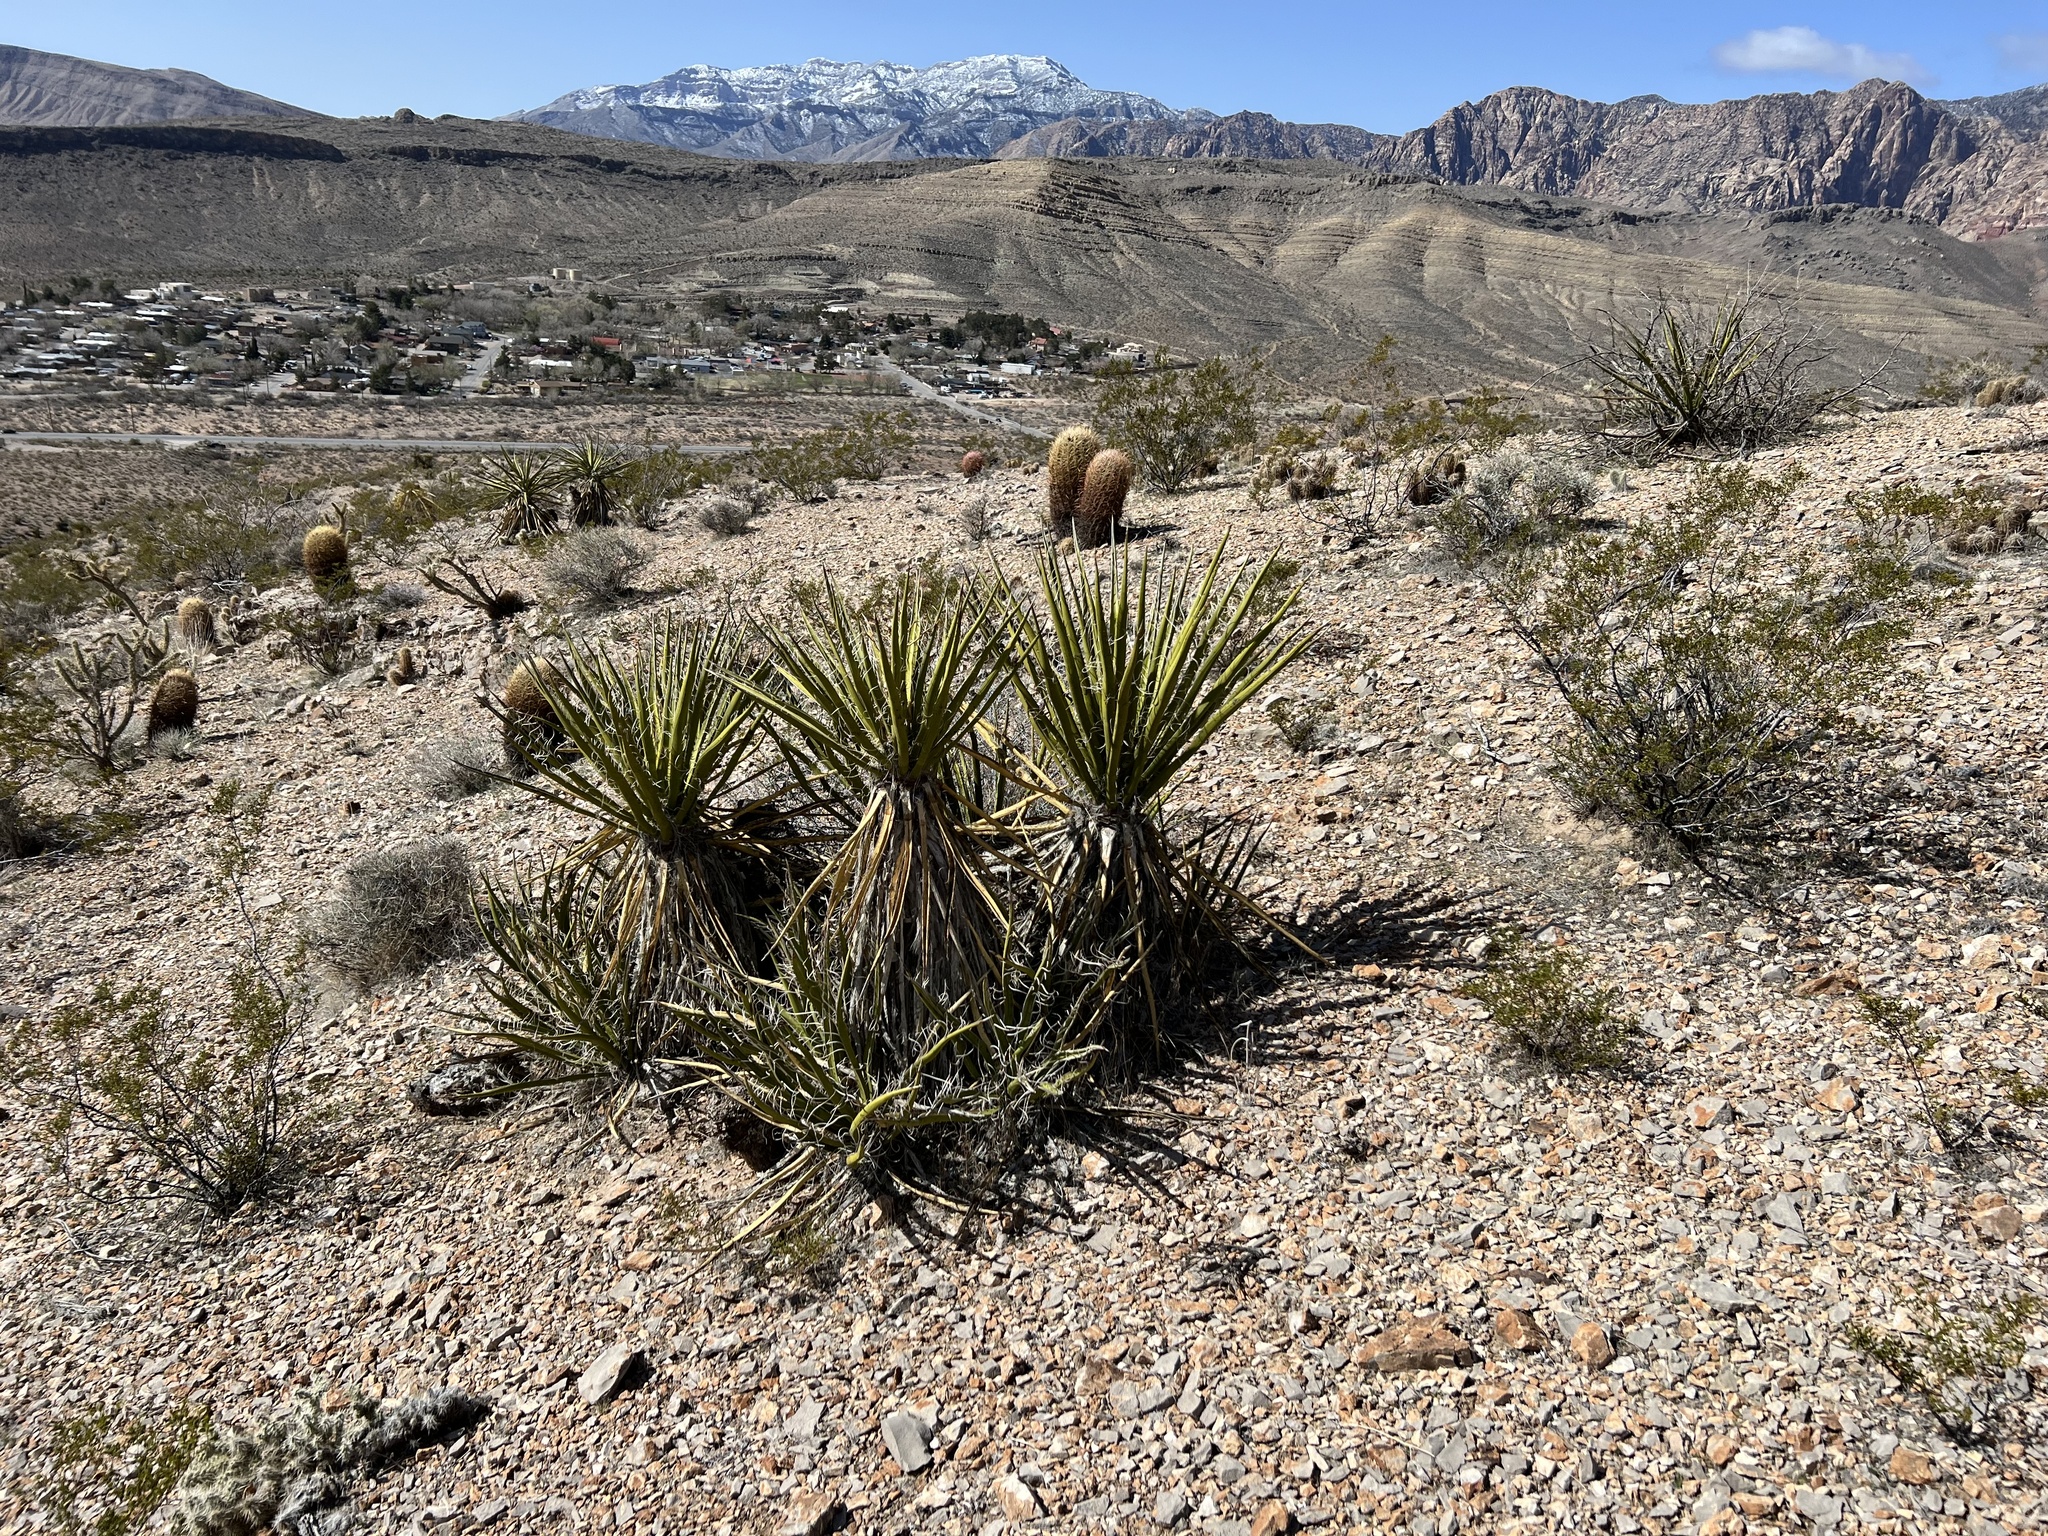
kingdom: Plantae
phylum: Tracheophyta
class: Liliopsida
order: Asparagales
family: Asparagaceae
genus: Yucca
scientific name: Yucca schidigera
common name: Mojave yucca
